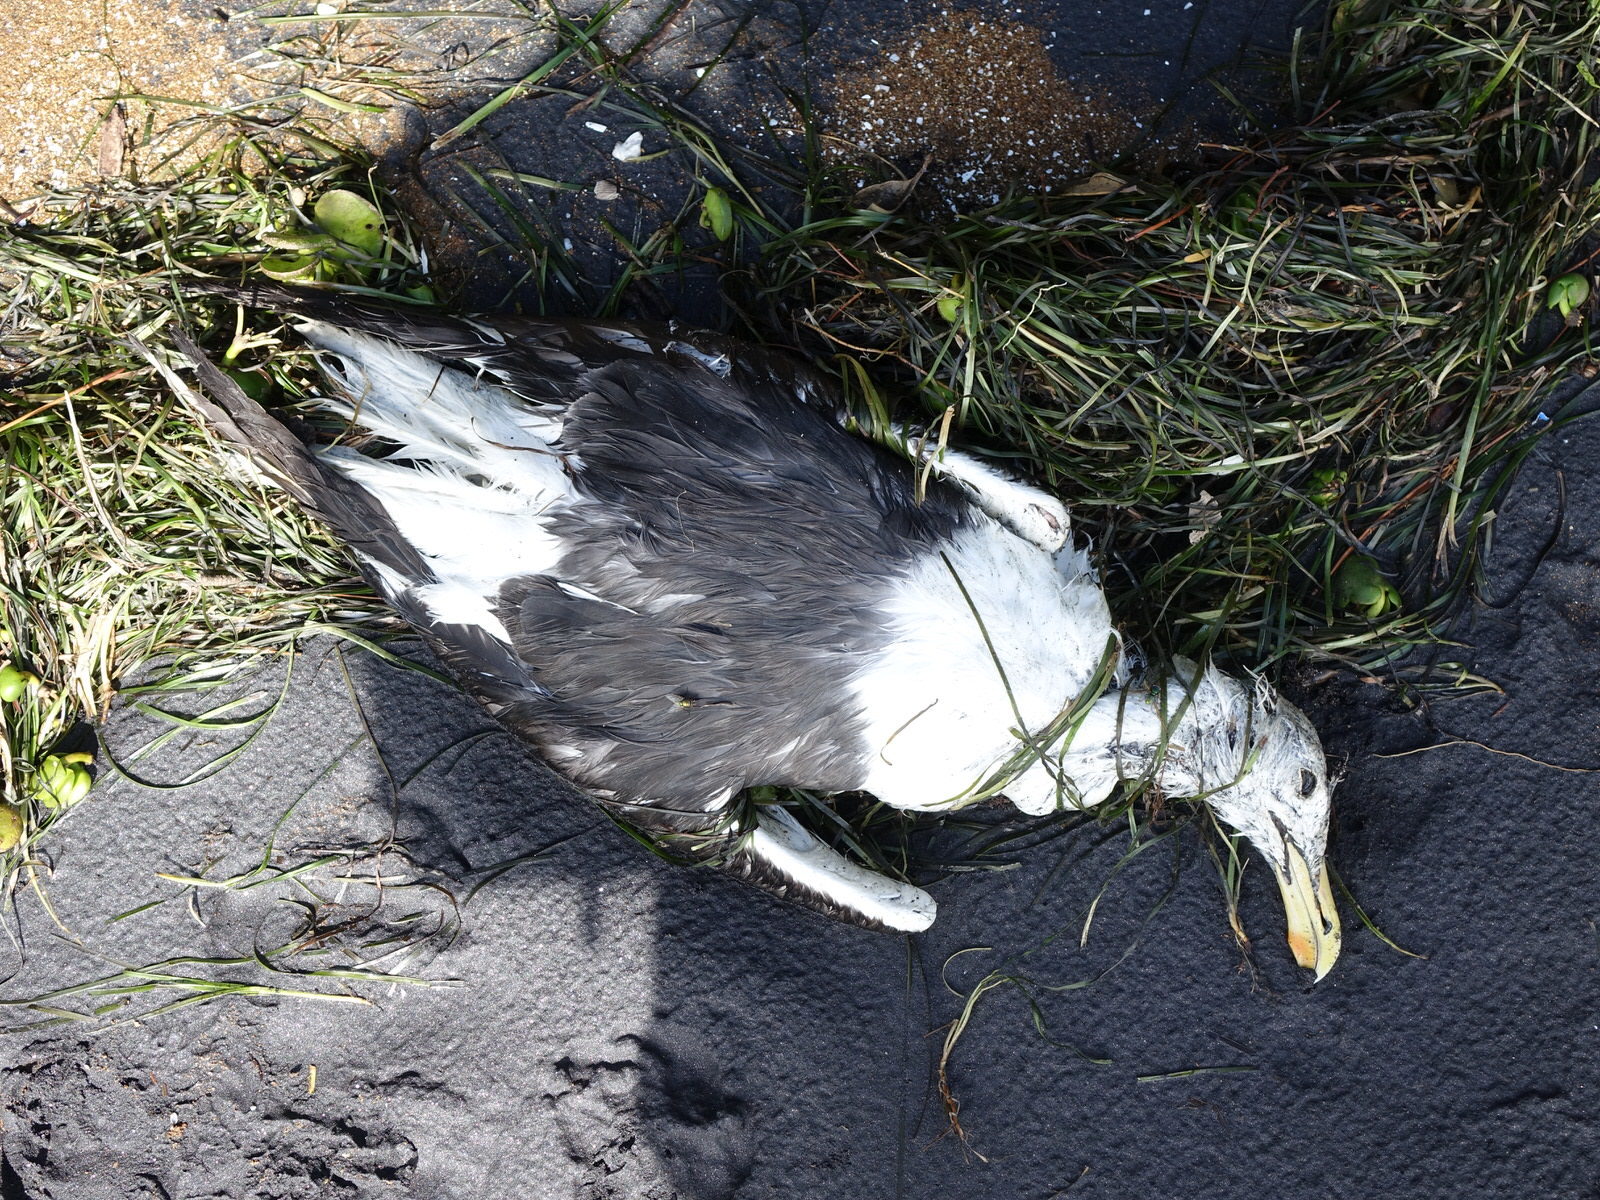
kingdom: Animalia
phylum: Chordata
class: Aves
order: Charadriiformes
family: Laridae
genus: Larus
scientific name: Larus dominicanus
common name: Kelp gull
